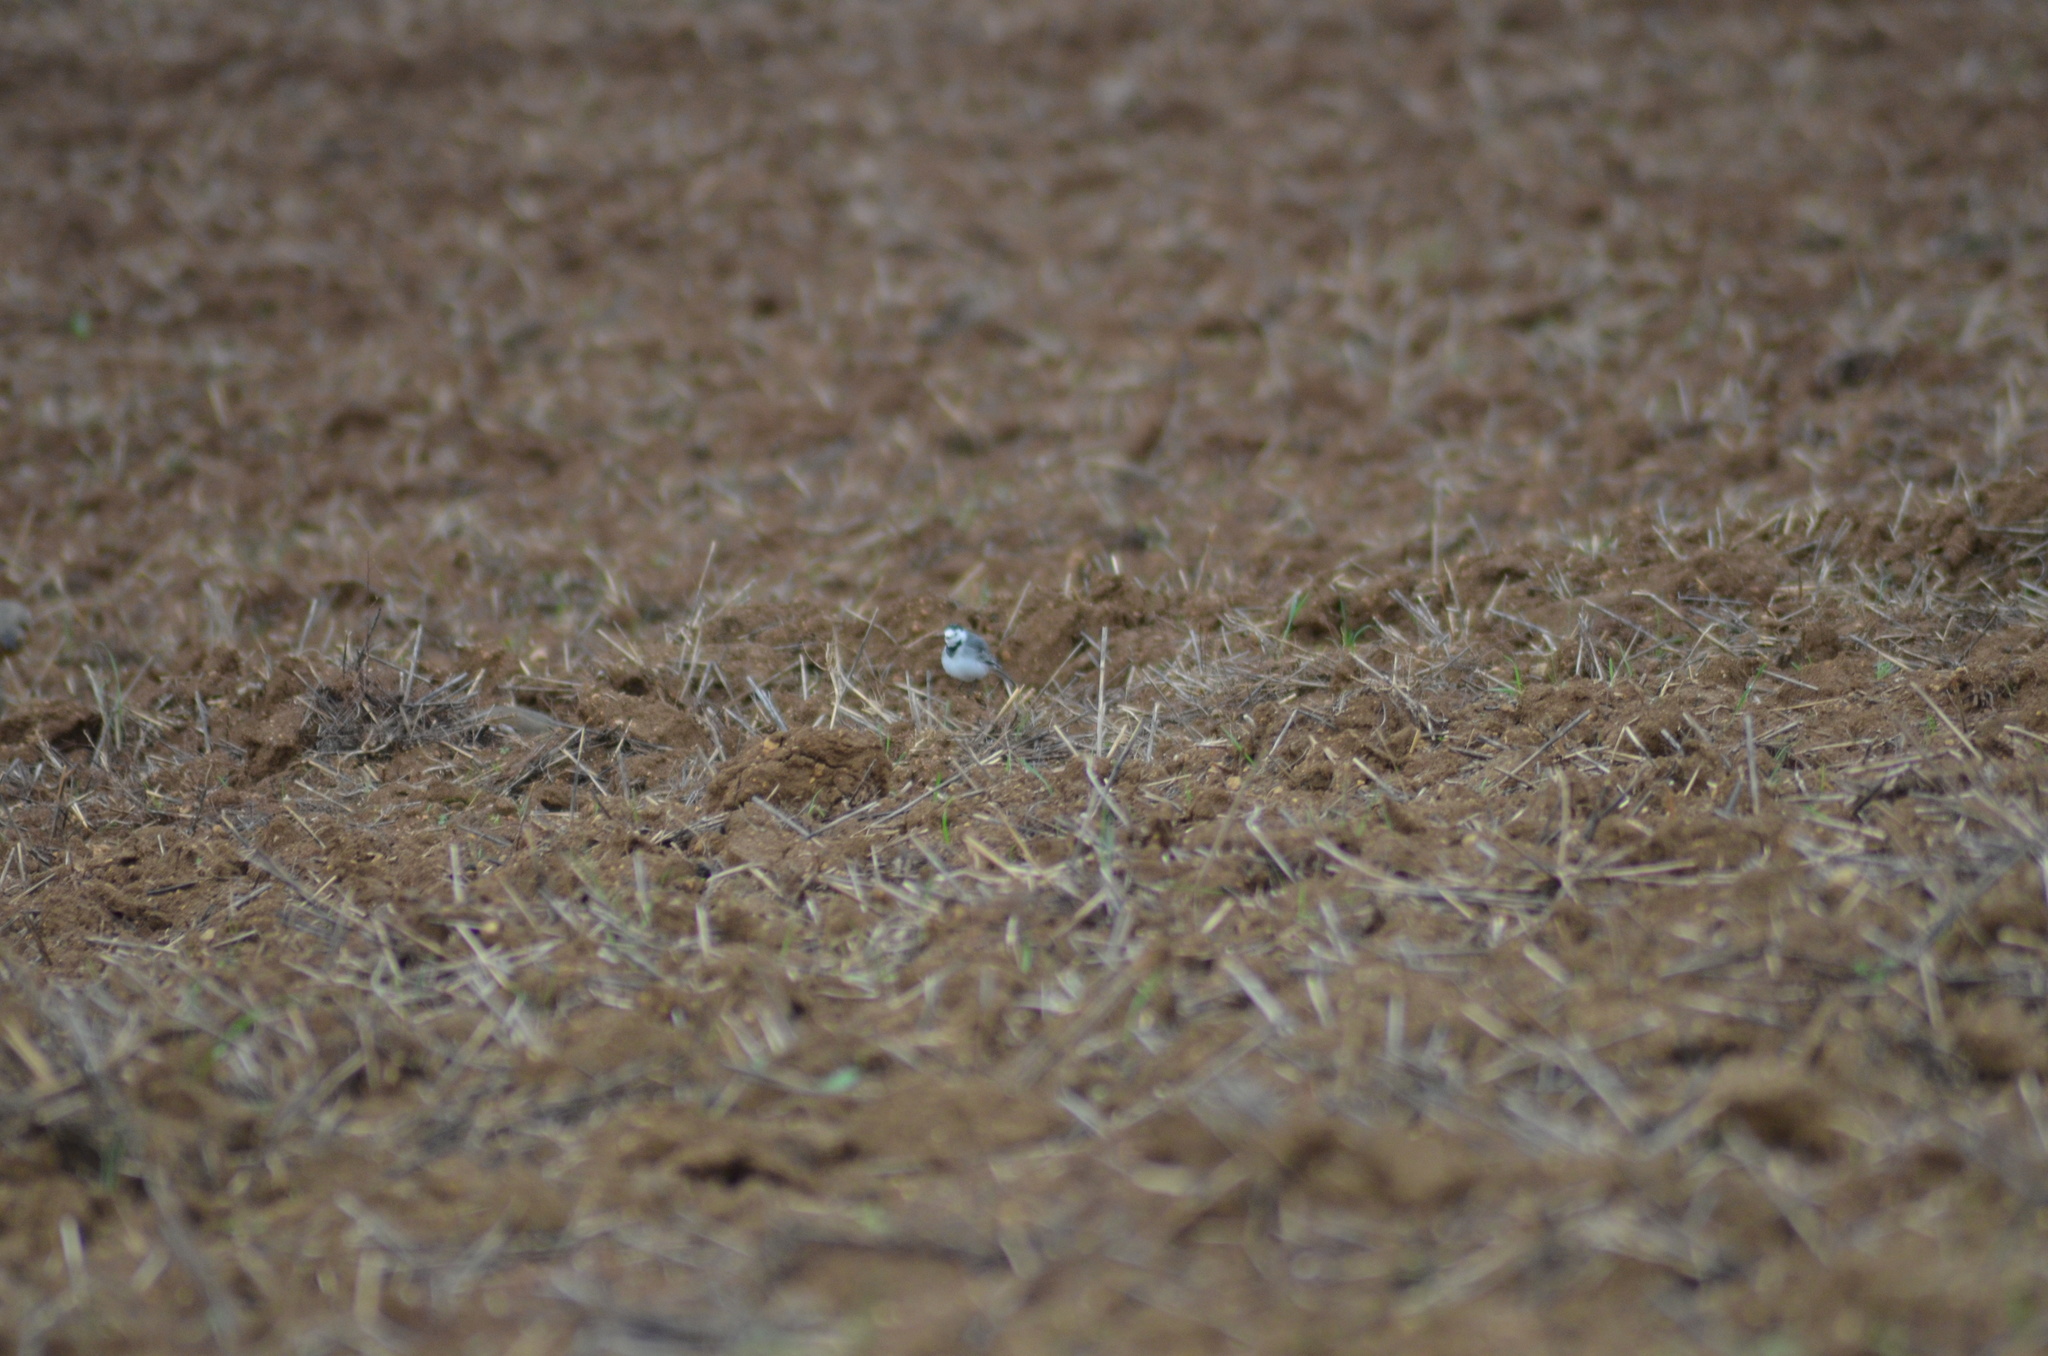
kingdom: Animalia
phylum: Chordata
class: Aves
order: Passeriformes
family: Motacillidae
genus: Motacilla
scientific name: Motacilla alba
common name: White wagtail
